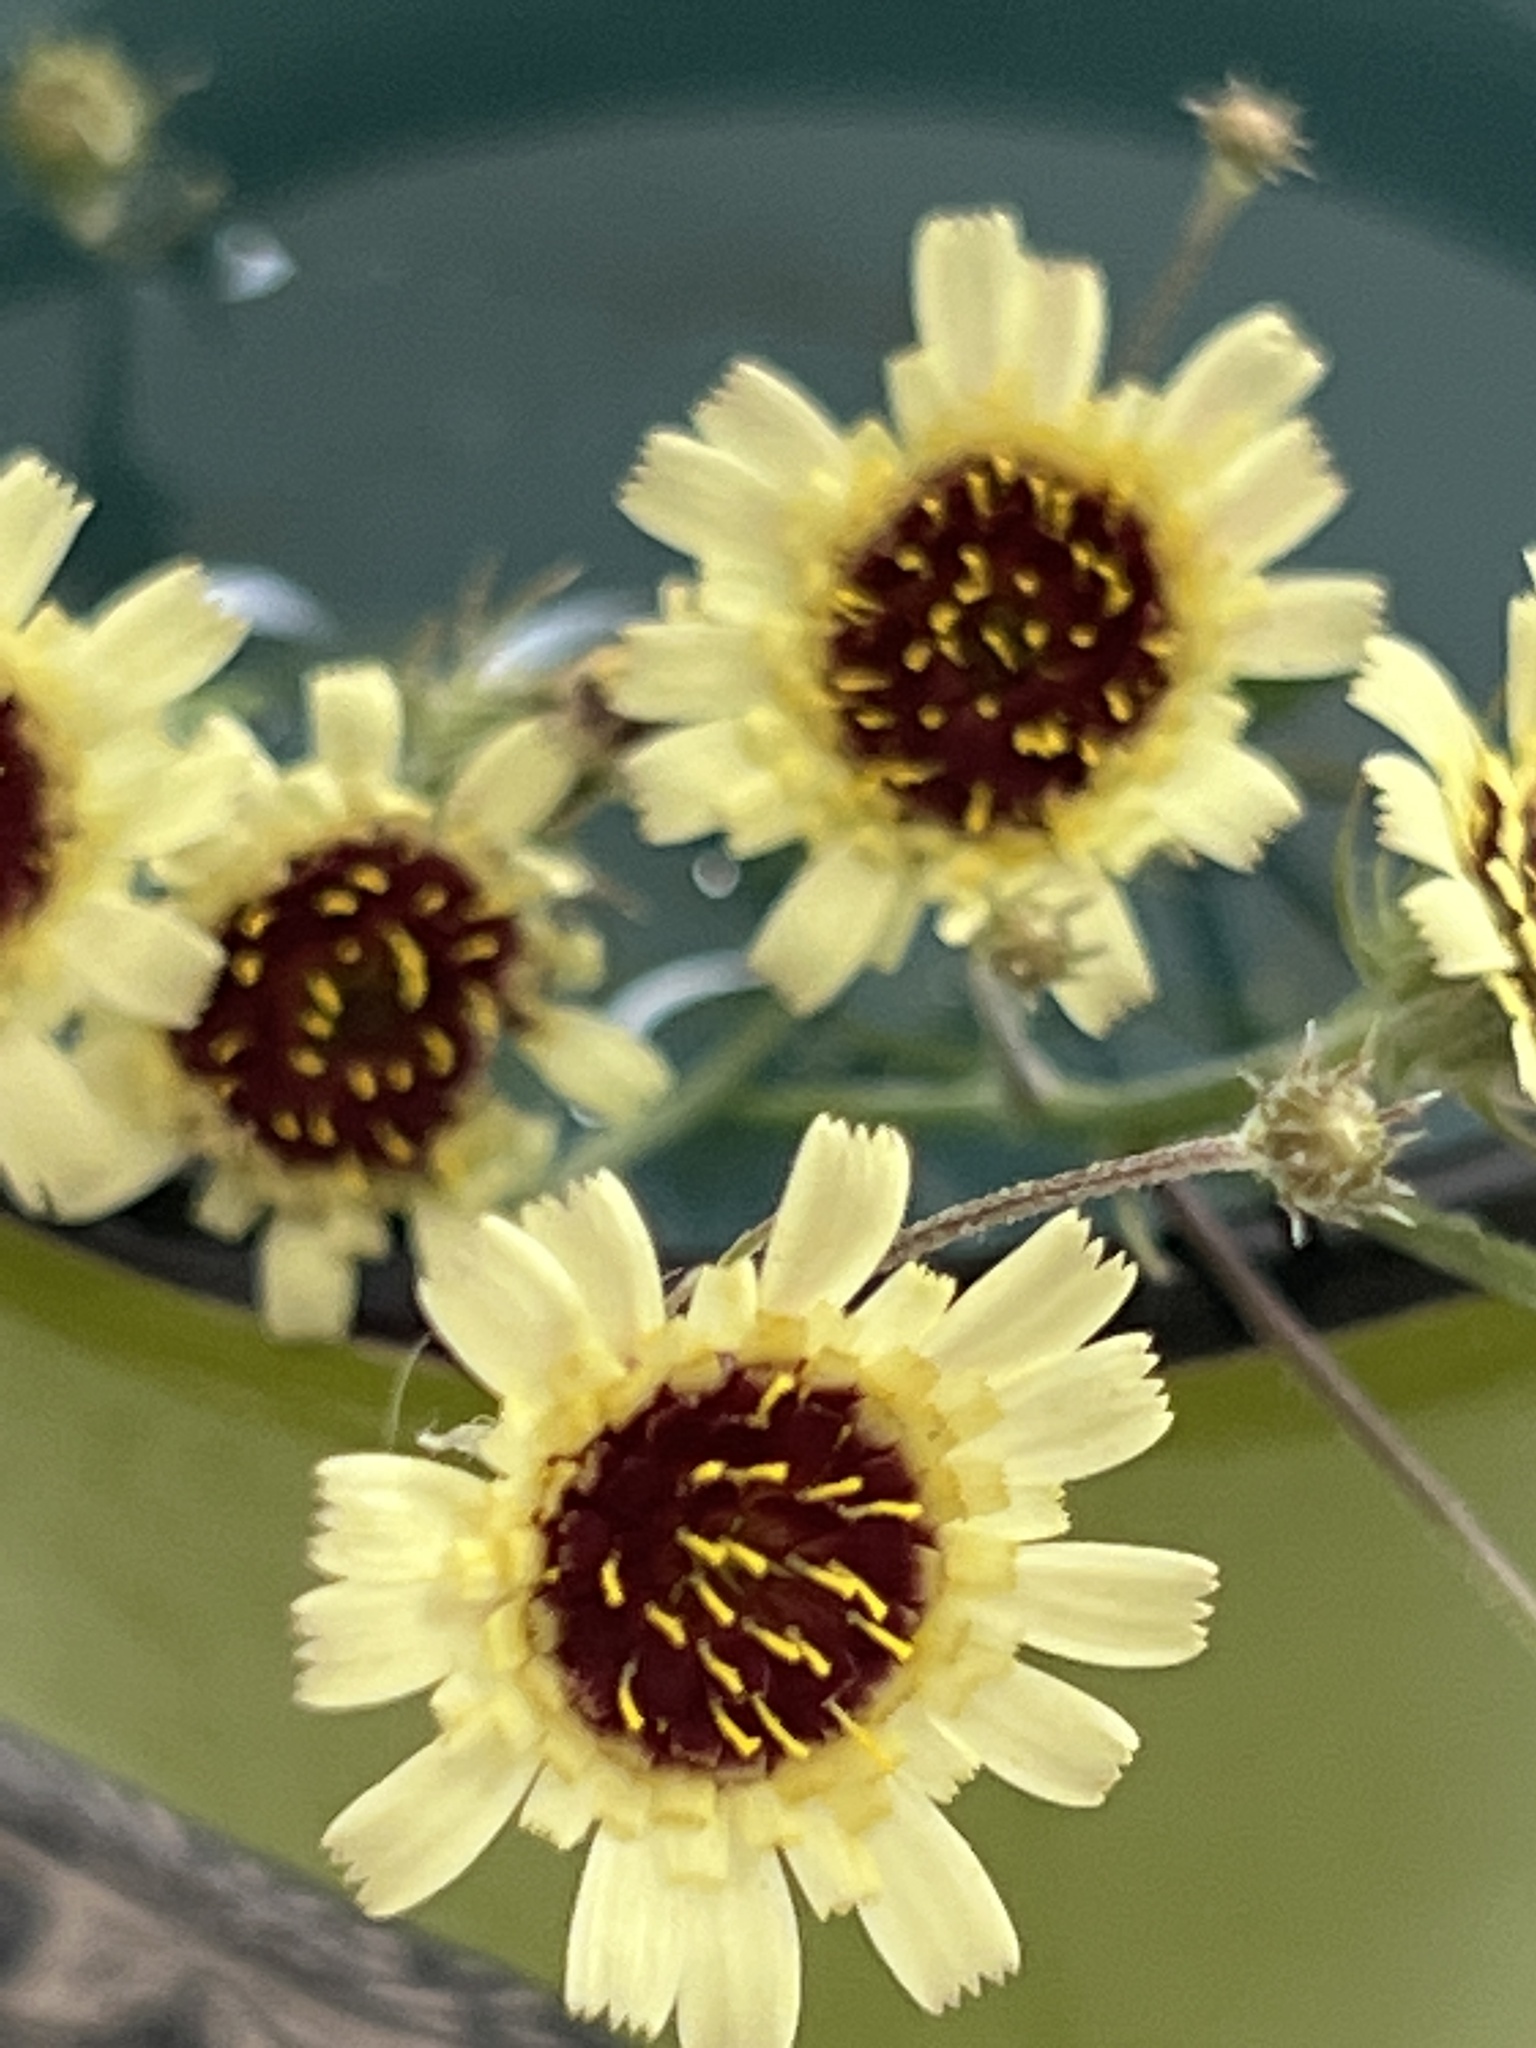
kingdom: Plantae
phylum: Tracheophyta
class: Magnoliopsida
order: Asterales
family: Asteraceae
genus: Tolpis
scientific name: Tolpis barbata
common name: Yellow hawkweed
